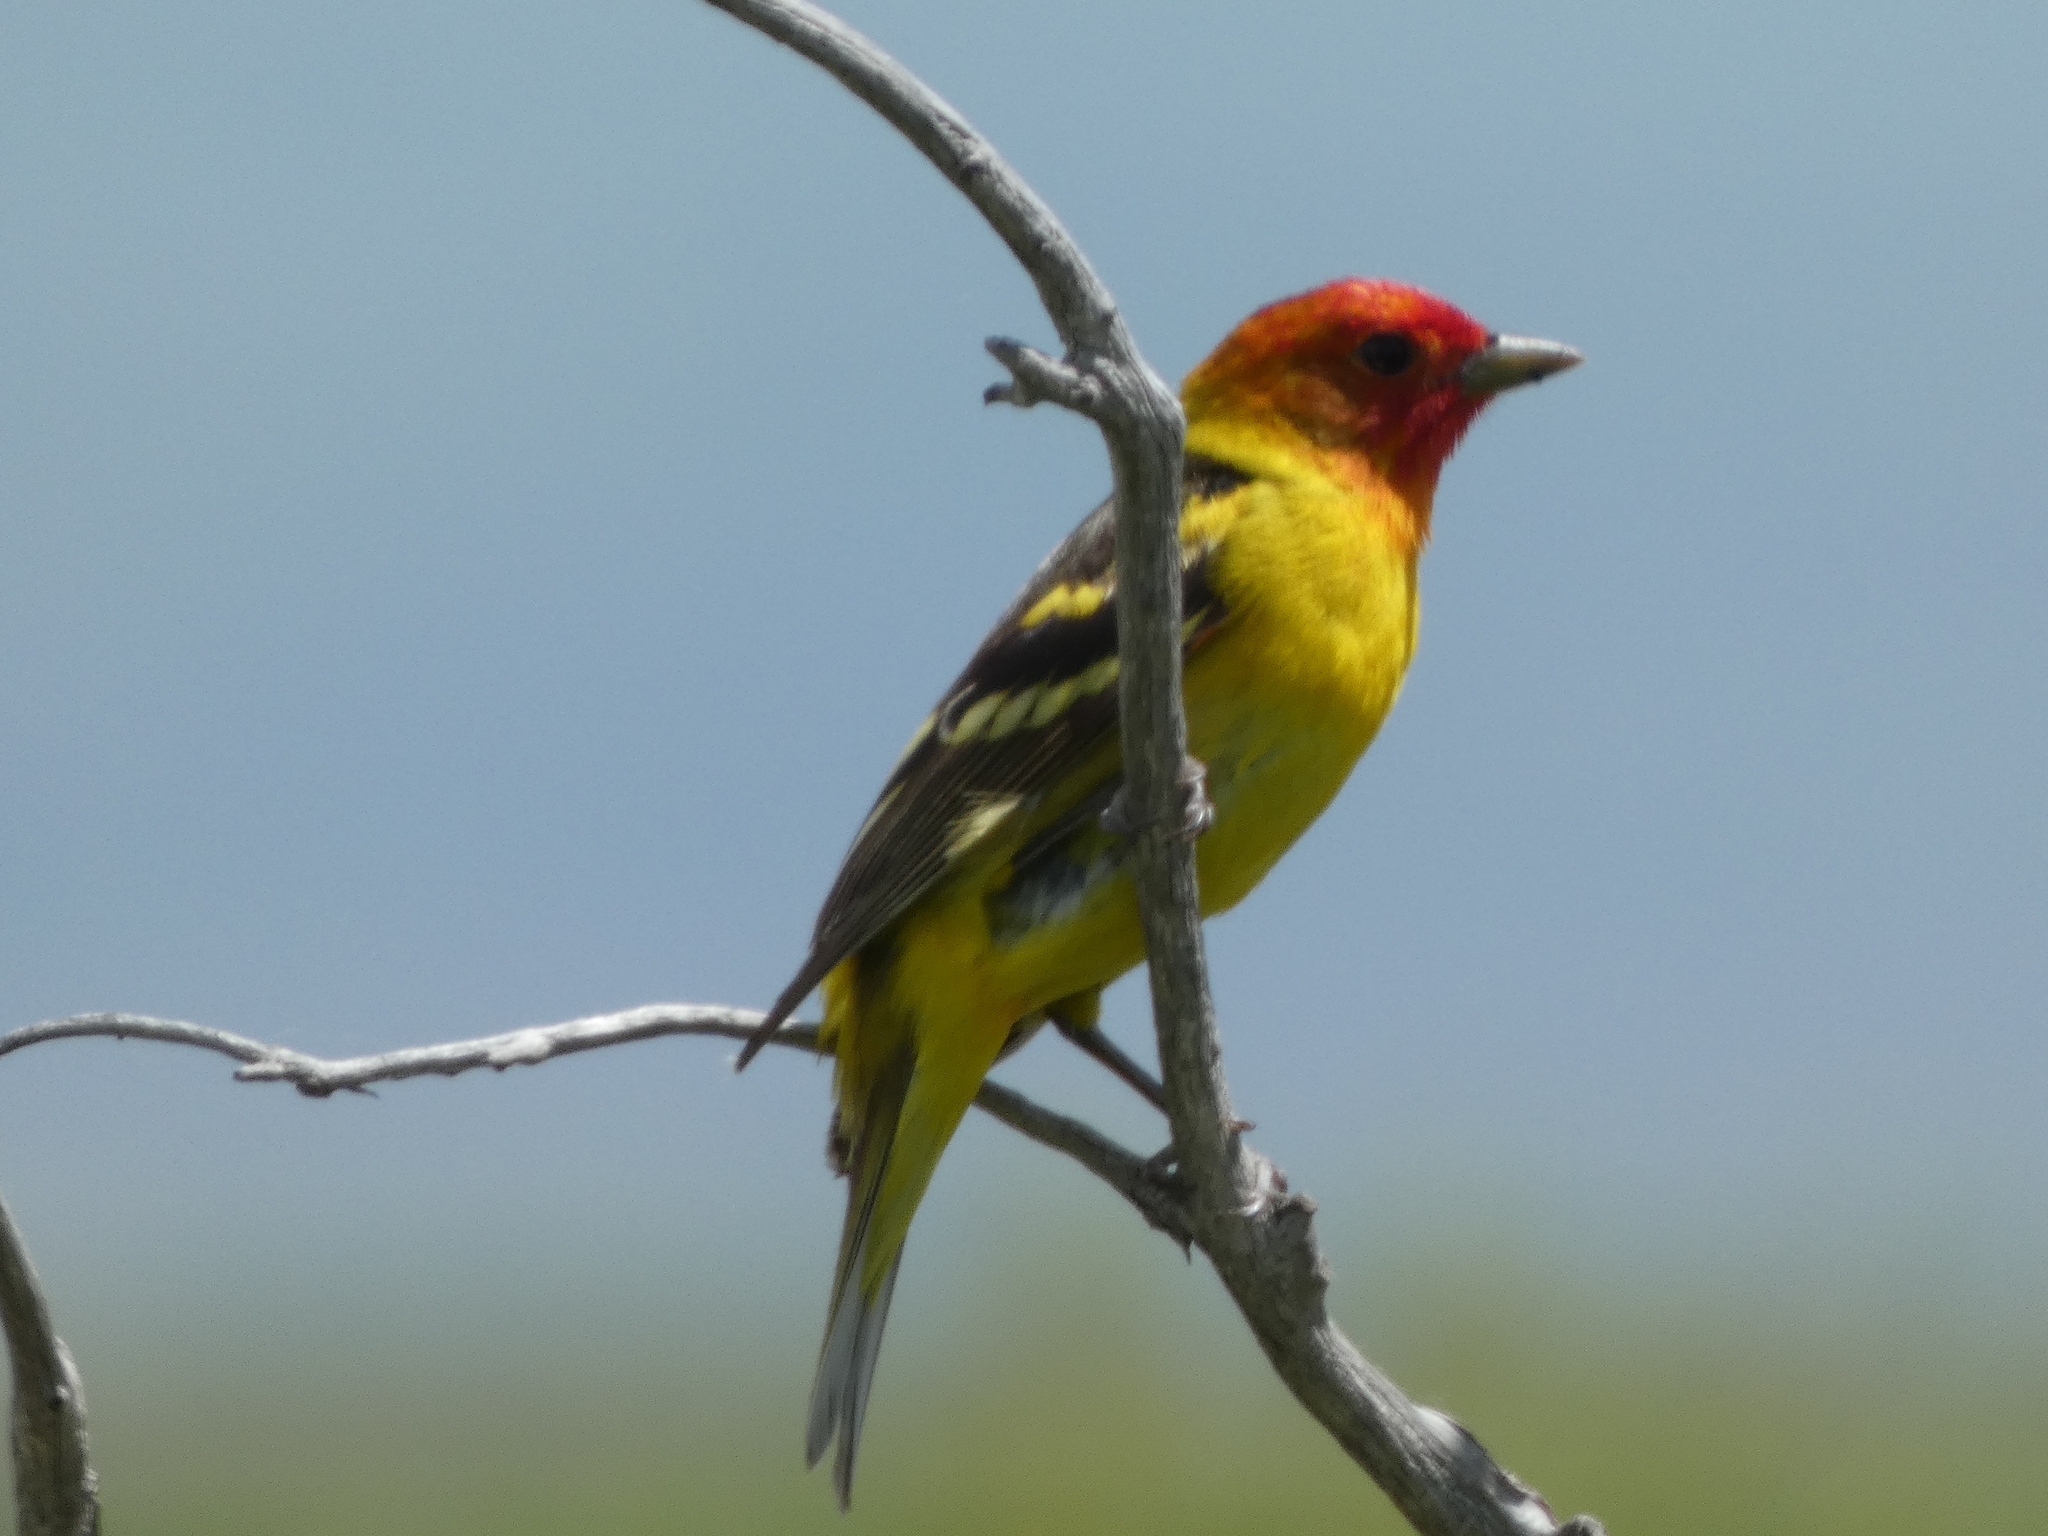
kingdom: Animalia
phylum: Chordata
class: Aves
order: Passeriformes
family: Cardinalidae
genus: Piranga
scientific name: Piranga ludoviciana
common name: Western tanager
